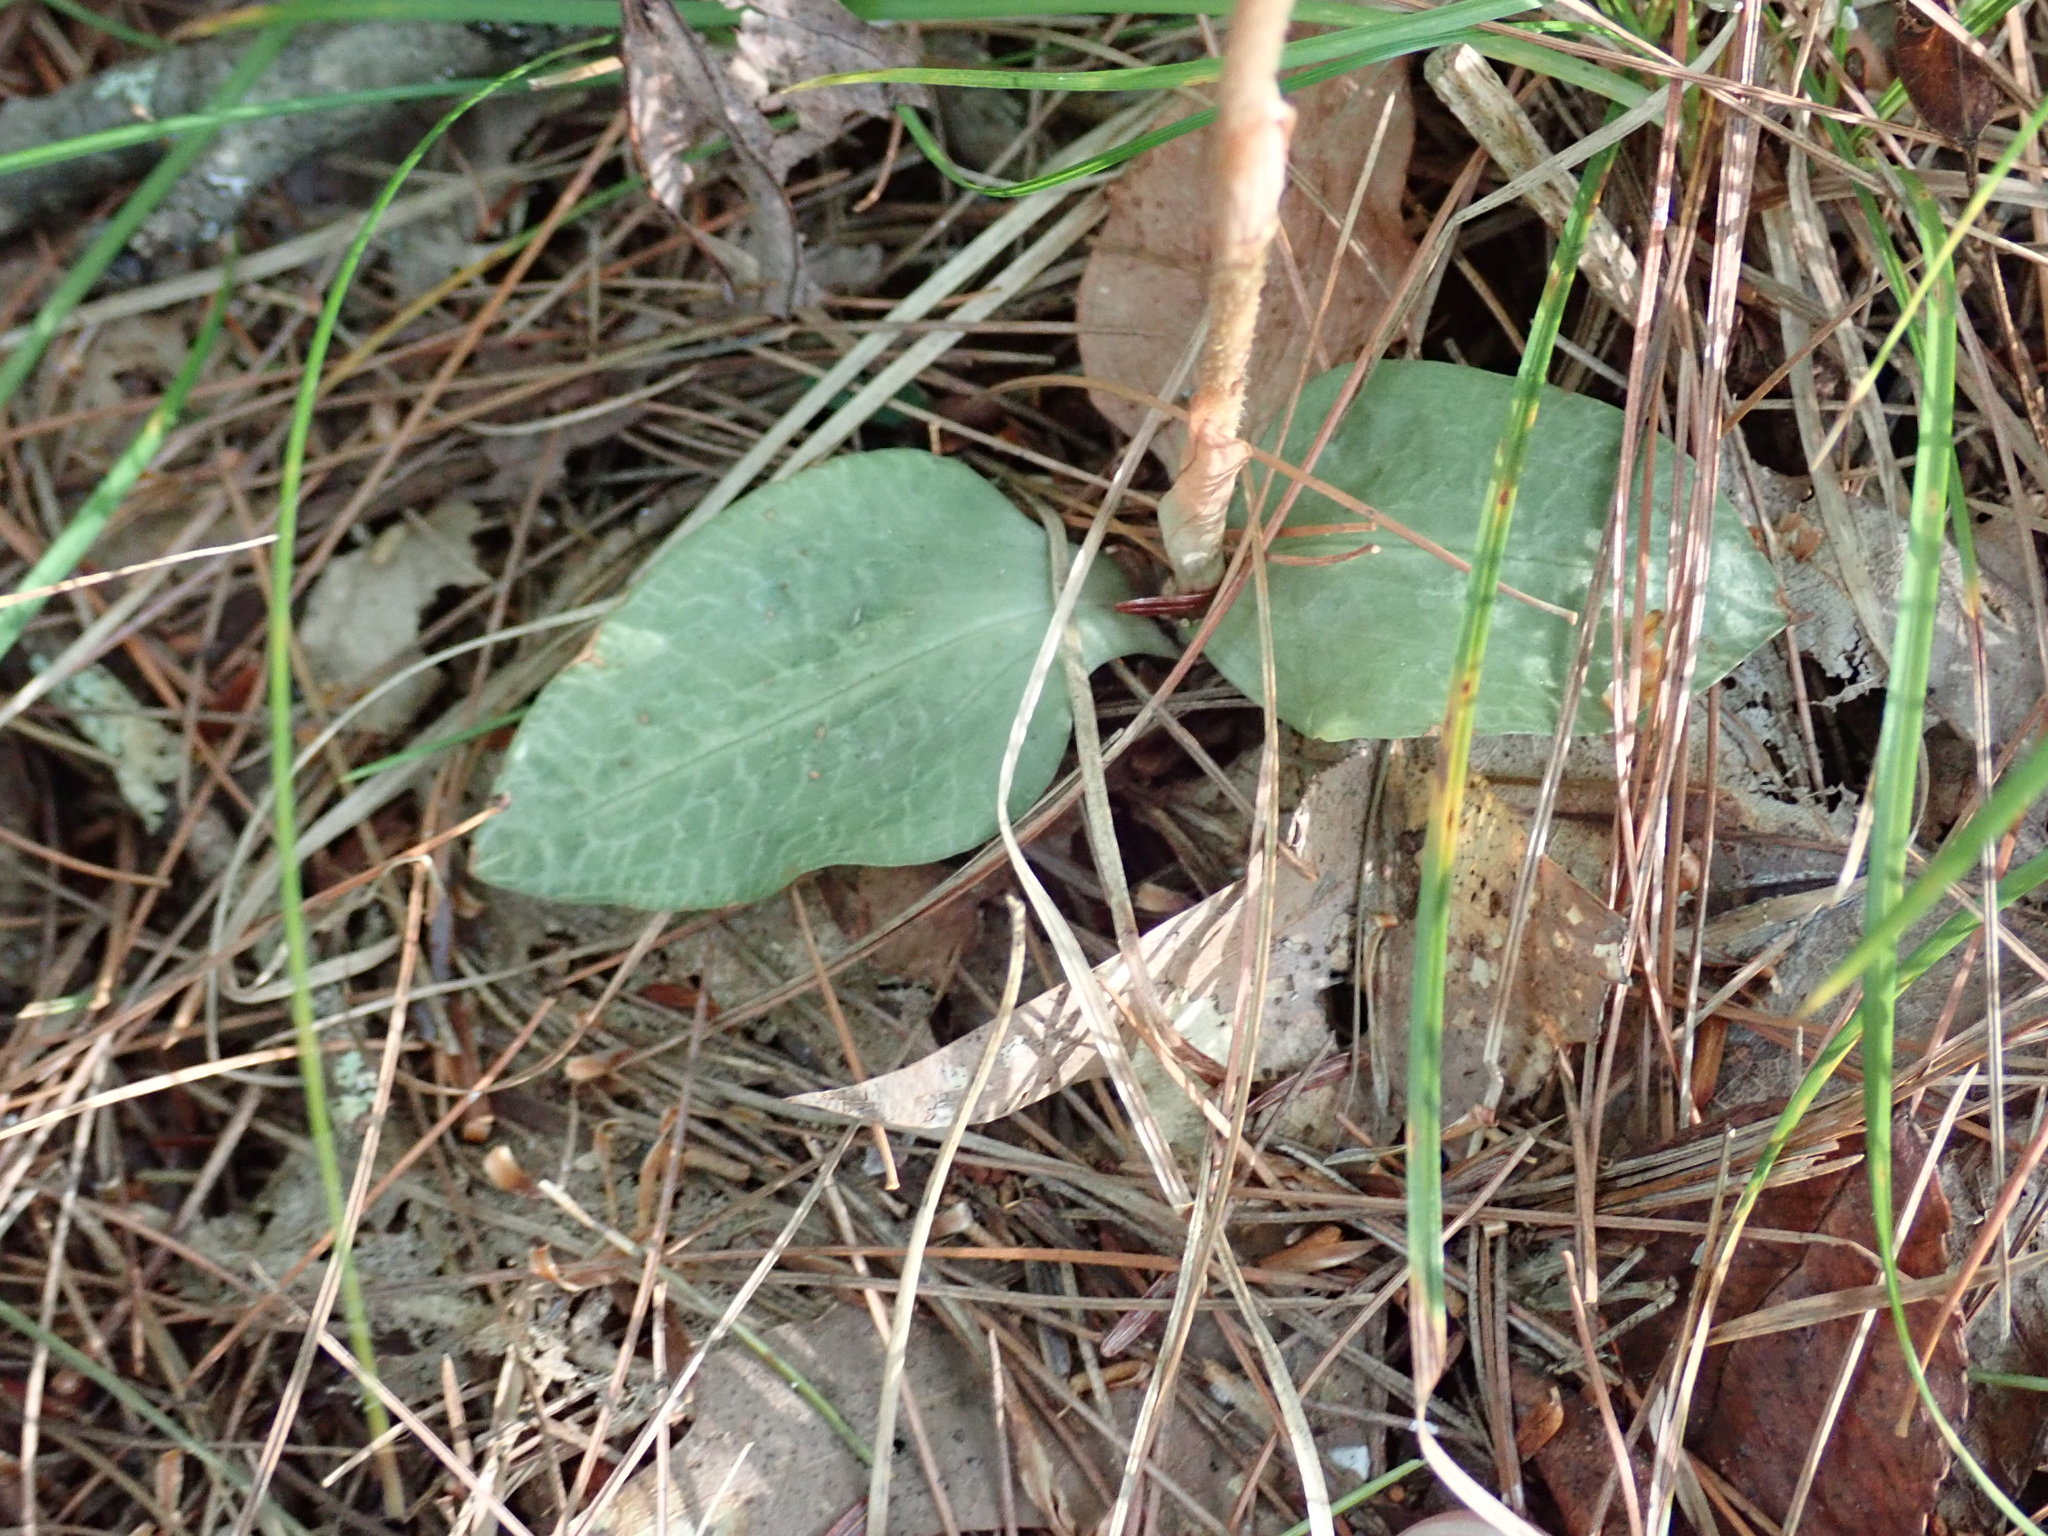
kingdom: Plantae
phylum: Tracheophyta
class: Liliopsida
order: Asparagales
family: Orchidaceae
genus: Goodyera
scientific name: Goodyera tesselata
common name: Checkered rattlesnake-plantain
